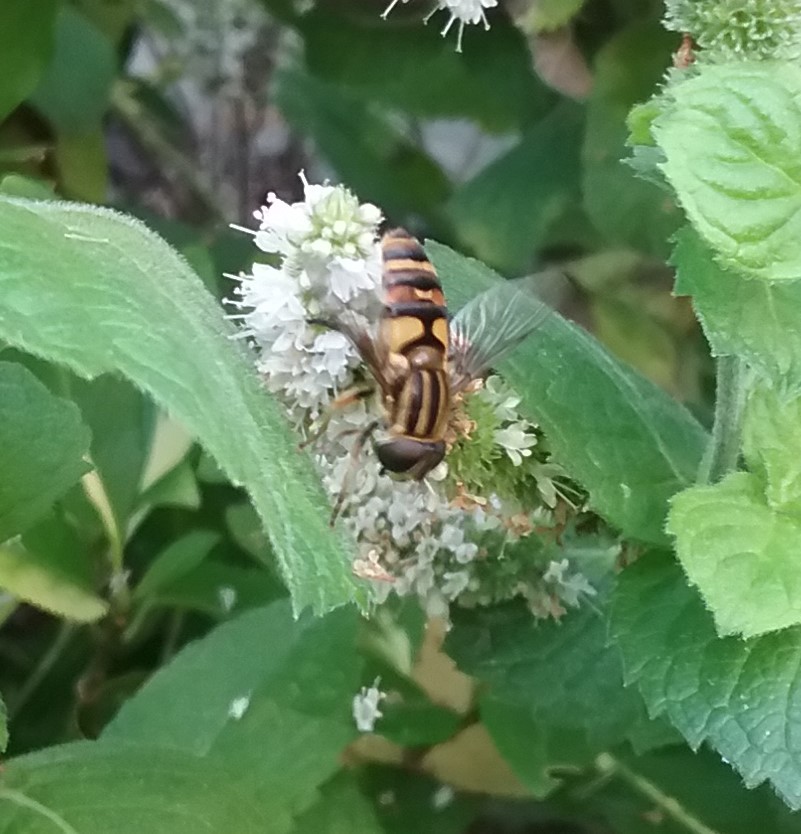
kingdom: Animalia
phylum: Arthropoda
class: Insecta
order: Diptera
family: Syrphidae
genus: Helophilus
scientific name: Helophilus fasciatus
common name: Narrow-headed marsh fly
